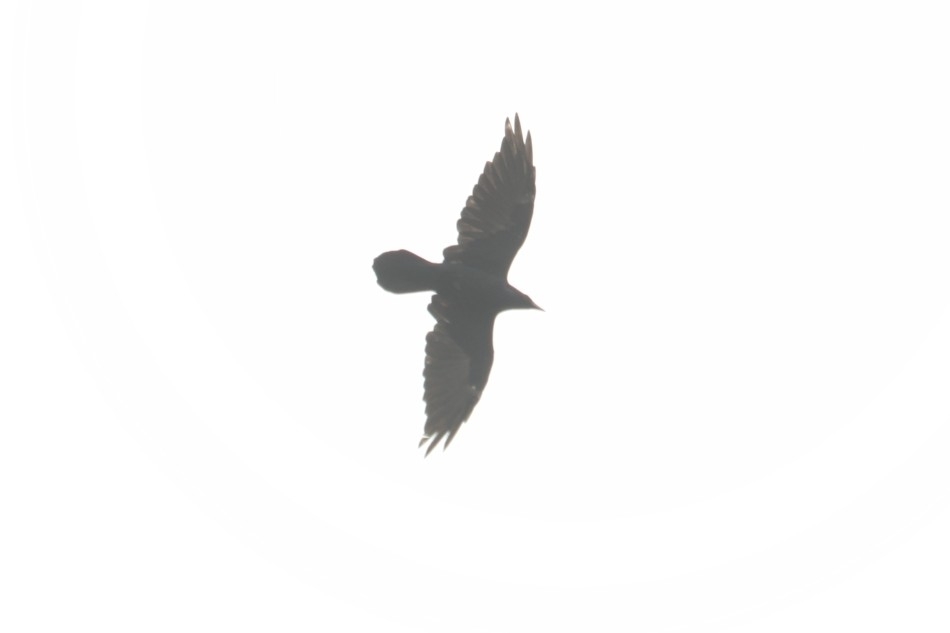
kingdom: Animalia
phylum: Chordata
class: Aves
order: Passeriformes
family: Corvidae
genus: Corvus
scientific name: Corvus corax
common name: Common raven
